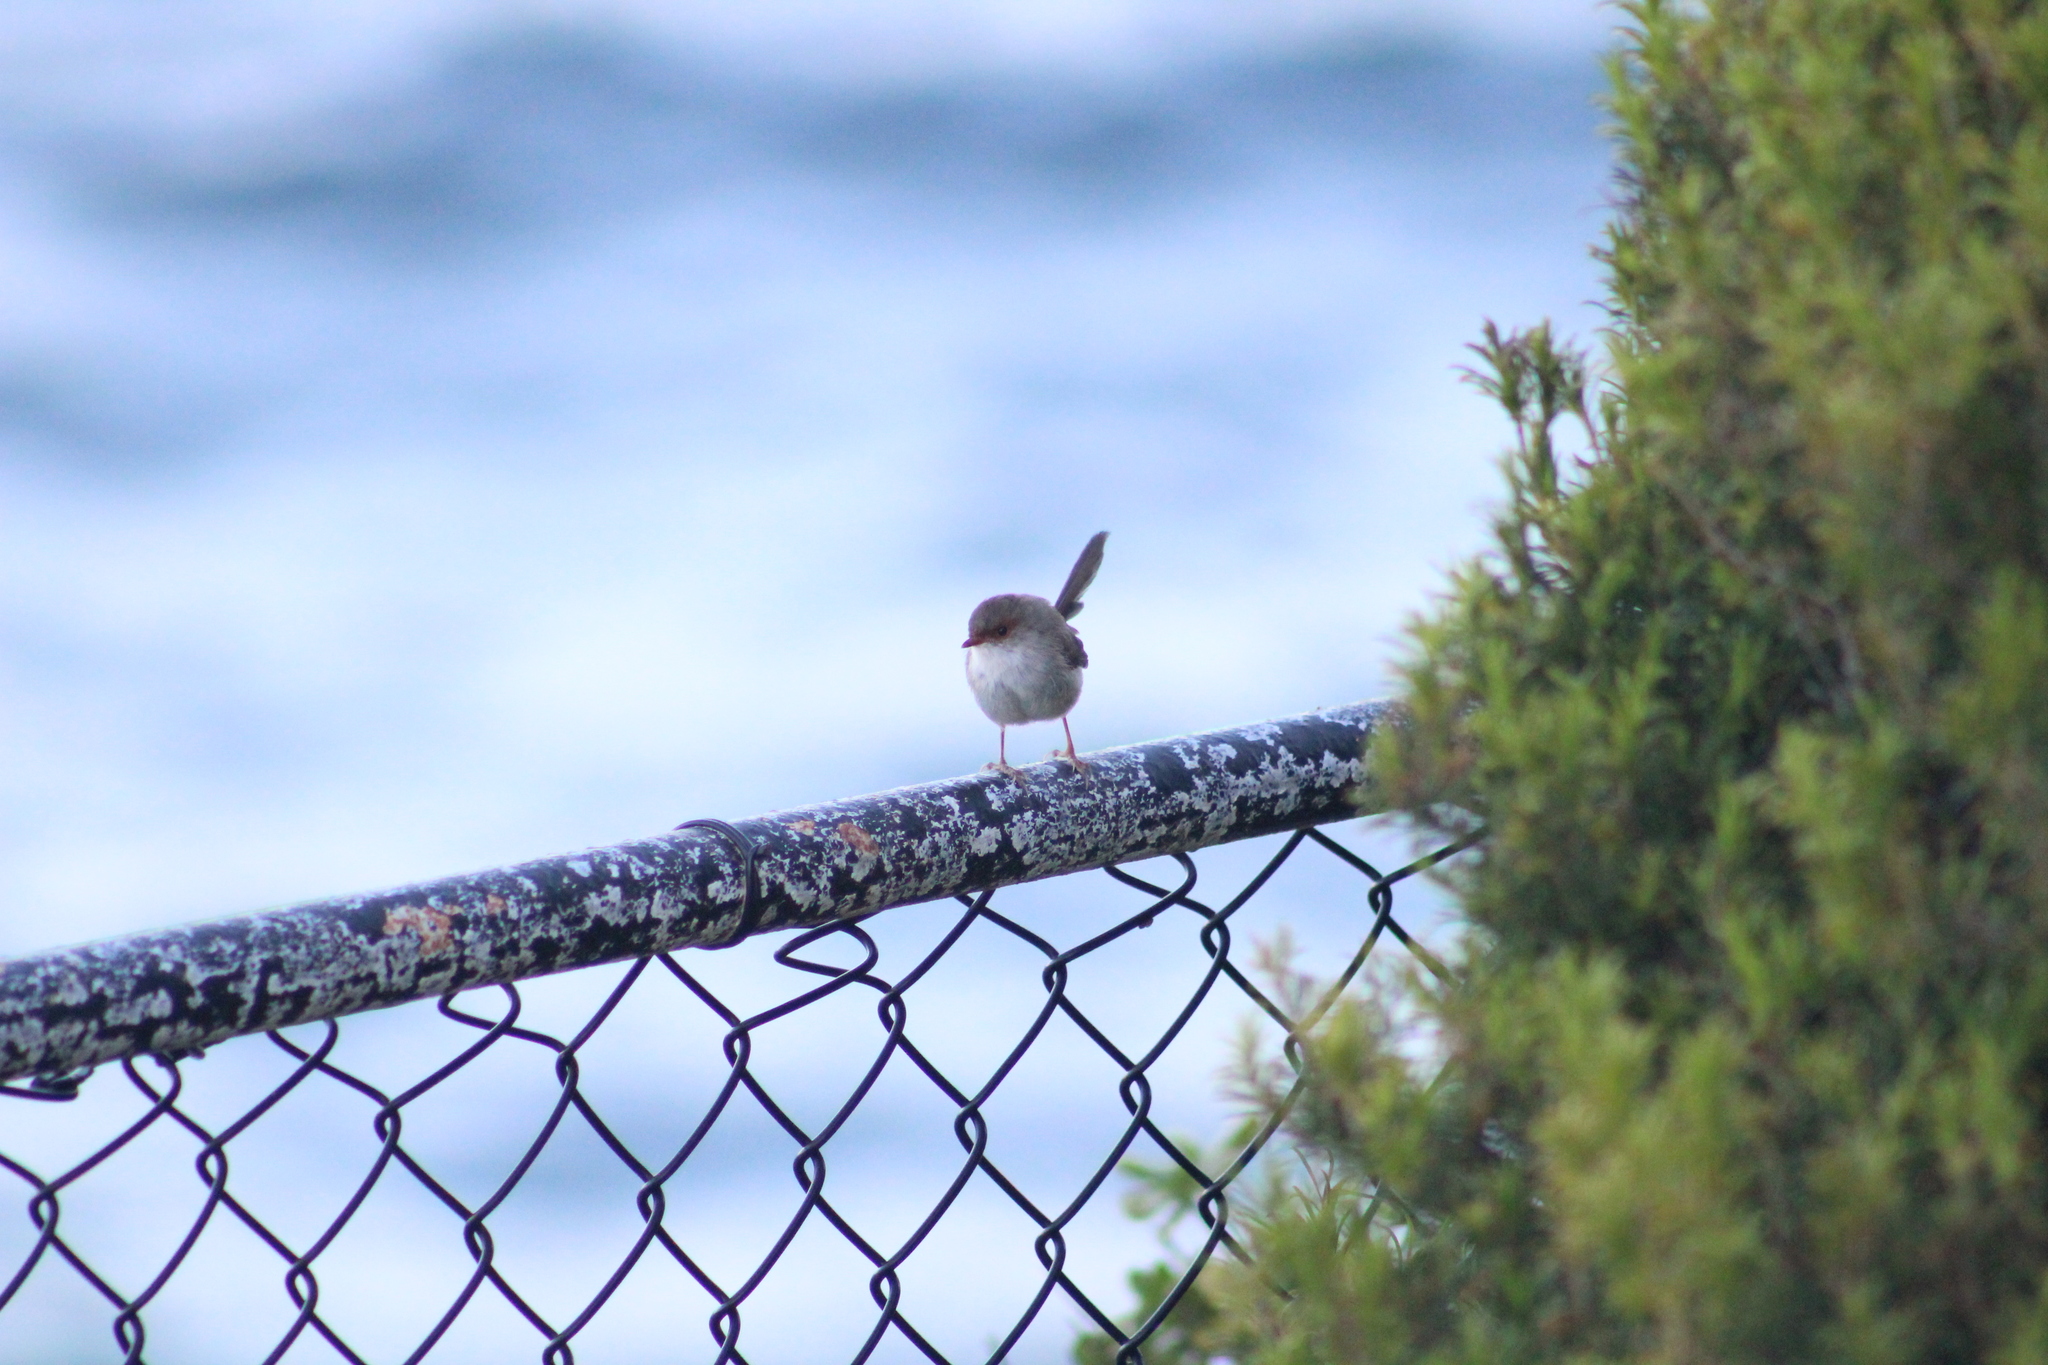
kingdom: Animalia
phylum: Chordata
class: Aves
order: Passeriformes
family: Maluridae
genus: Malurus
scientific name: Malurus cyaneus
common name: Superb fairywren
